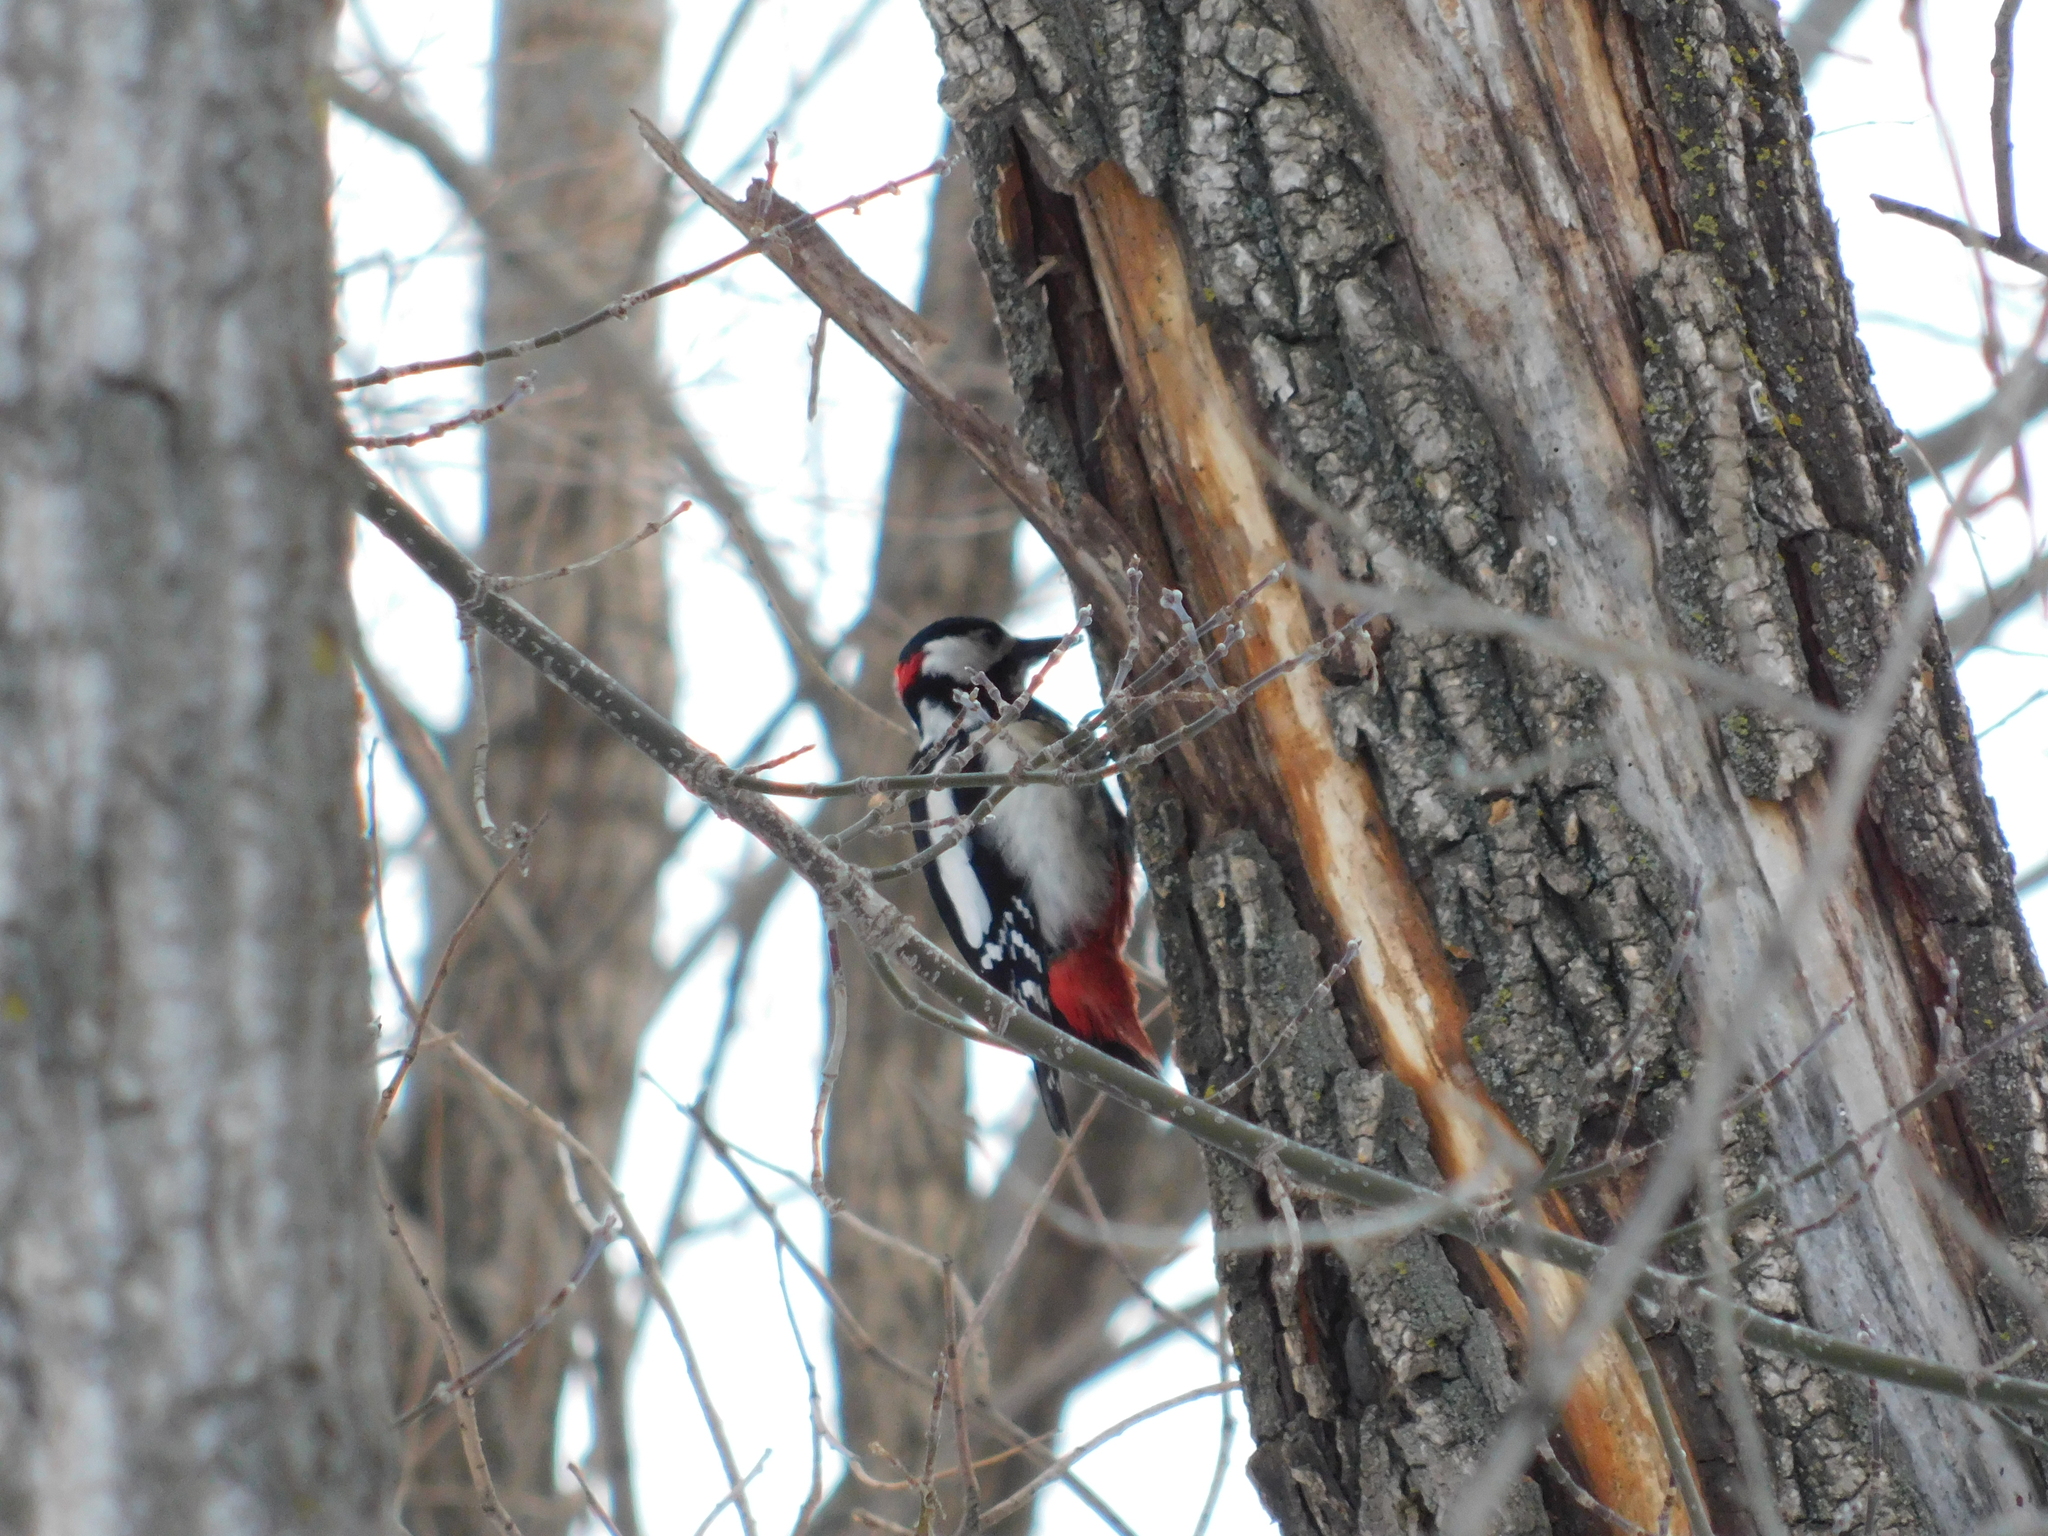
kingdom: Animalia
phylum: Chordata
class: Aves
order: Piciformes
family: Picidae
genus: Dendrocopos
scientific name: Dendrocopos major
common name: Great spotted woodpecker
